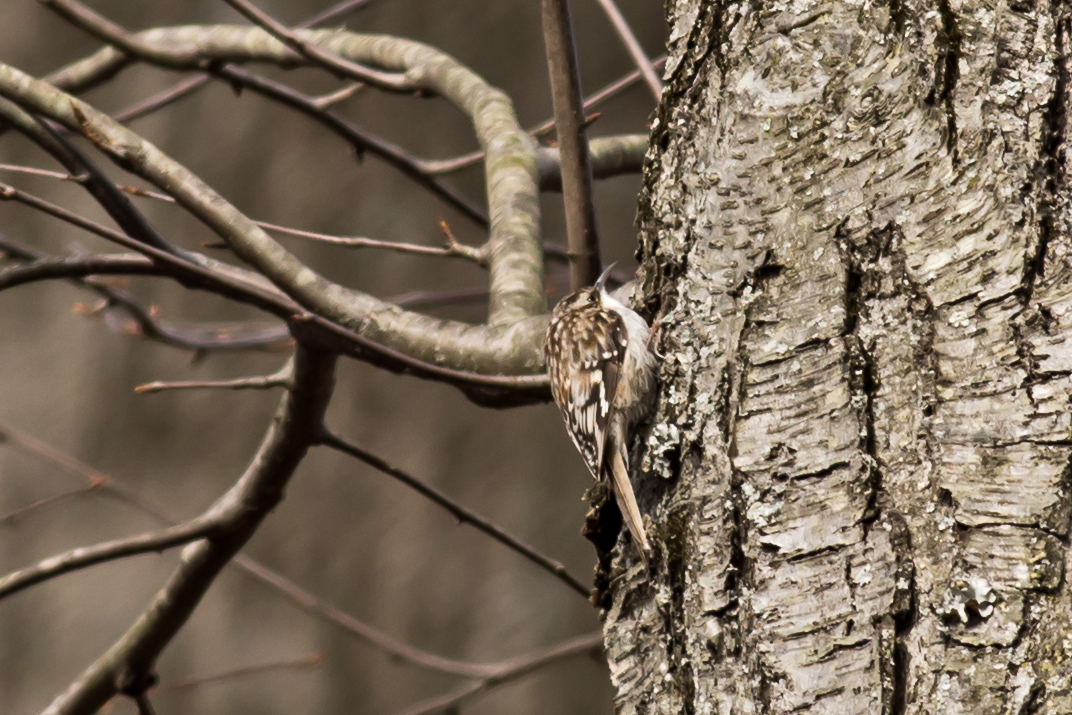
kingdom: Animalia
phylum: Chordata
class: Aves
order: Passeriformes
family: Certhiidae
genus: Certhia
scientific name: Certhia americana
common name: Brown creeper
